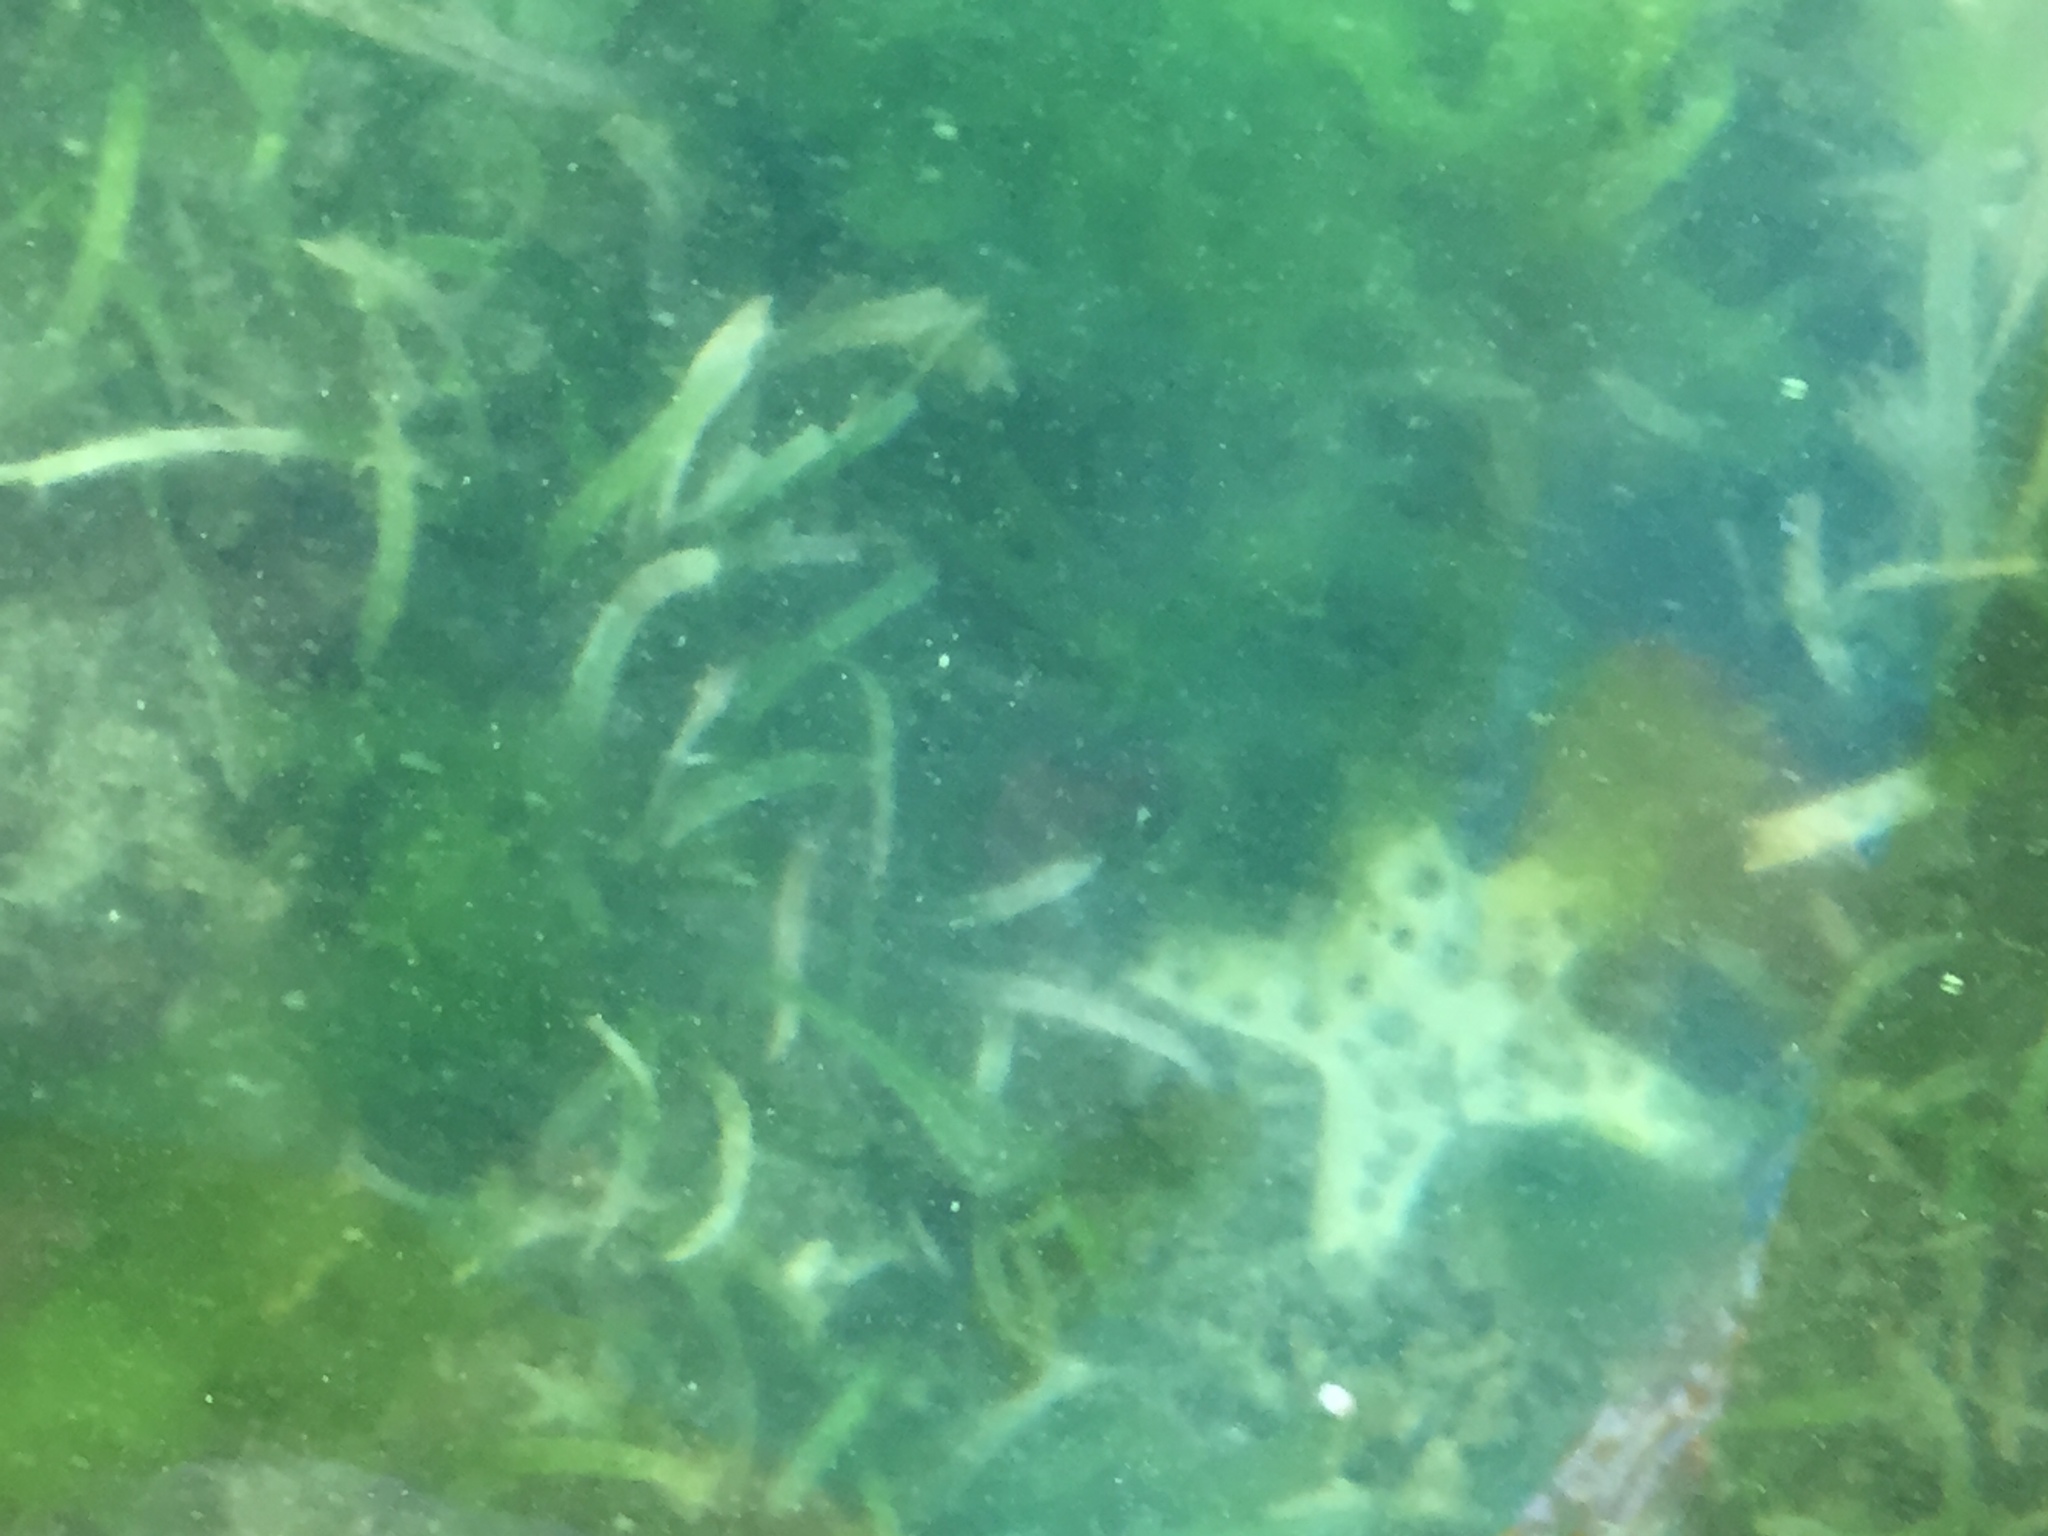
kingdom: Animalia
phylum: Echinodermata
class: Asteroidea
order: Valvatida
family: Oreasteridae
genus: Protoreaster
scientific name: Protoreaster nodosus
